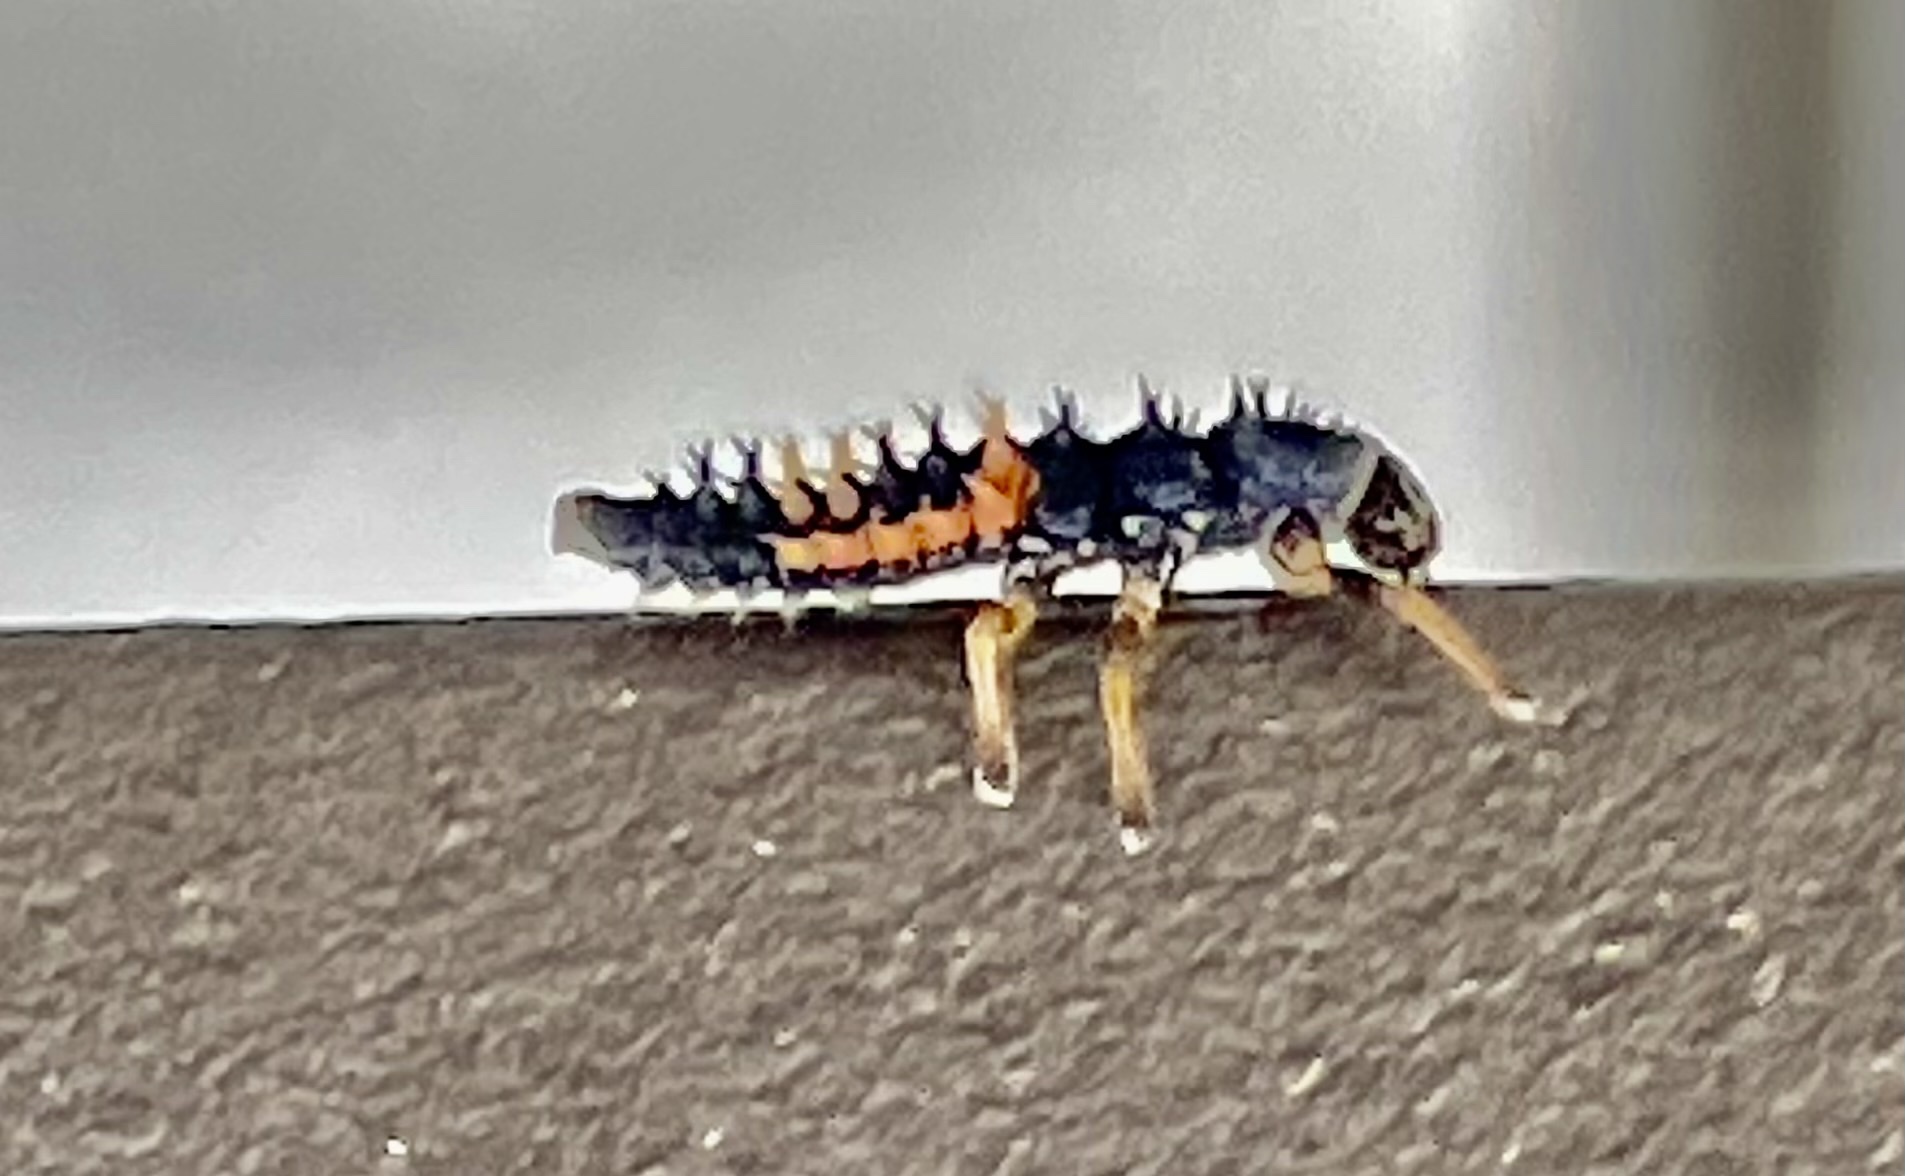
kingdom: Animalia
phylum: Arthropoda
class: Insecta
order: Coleoptera
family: Coccinellidae
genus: Harmonia
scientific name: Harmonia axyridis
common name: Harlequin ladybird
